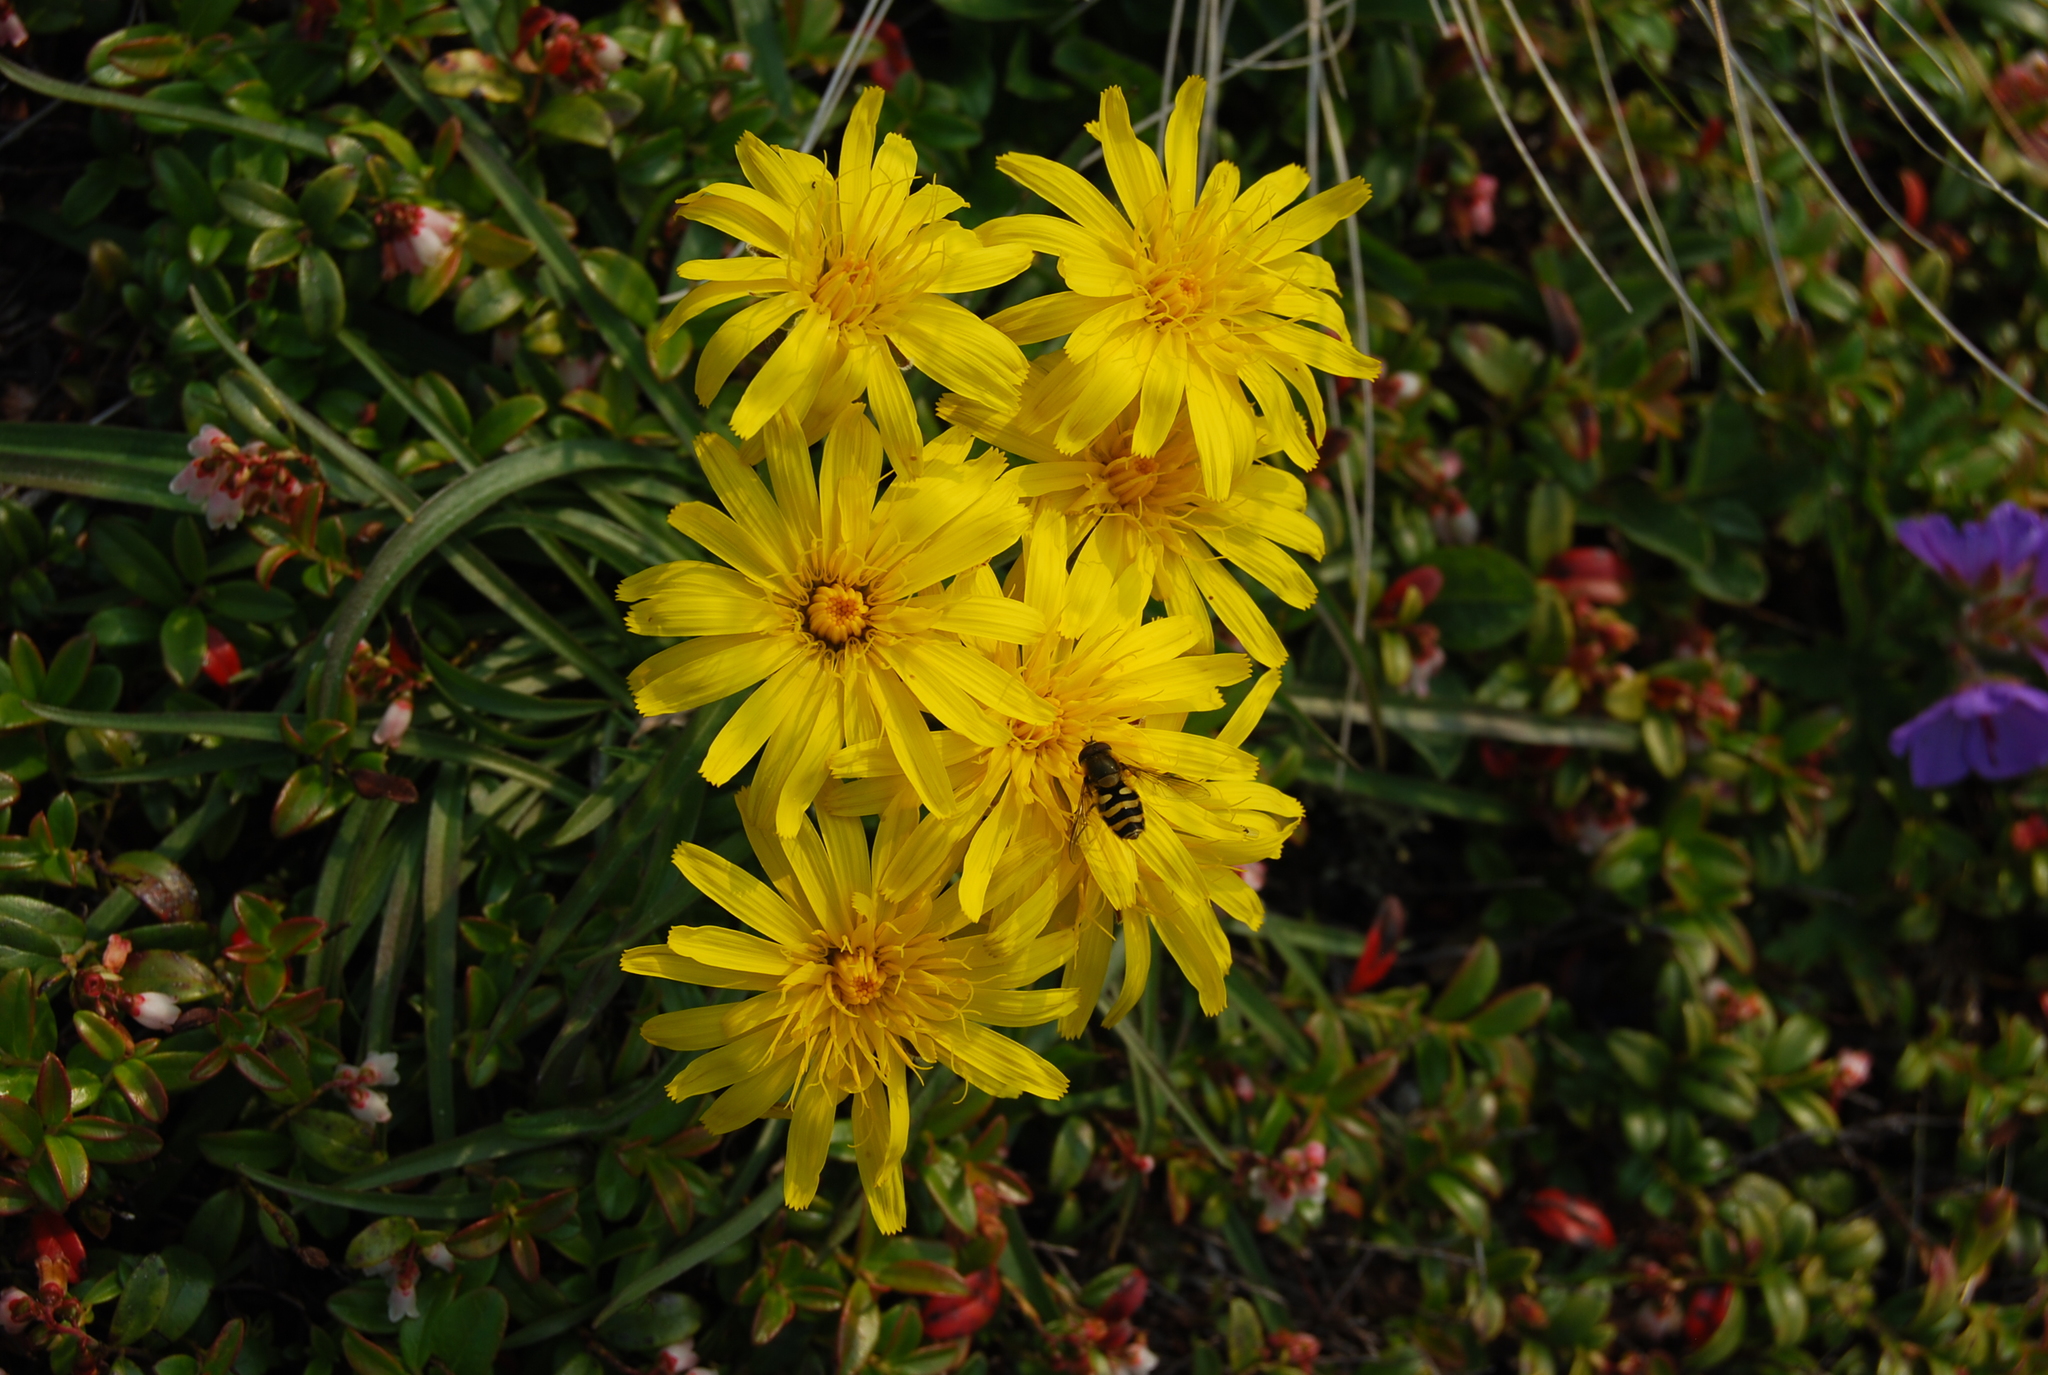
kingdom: Plantae
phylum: Tracheophyta
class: Magnoliopsida
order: Asterales
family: Asteraceae
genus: Scorzonera
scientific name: Scorzonera radiata
